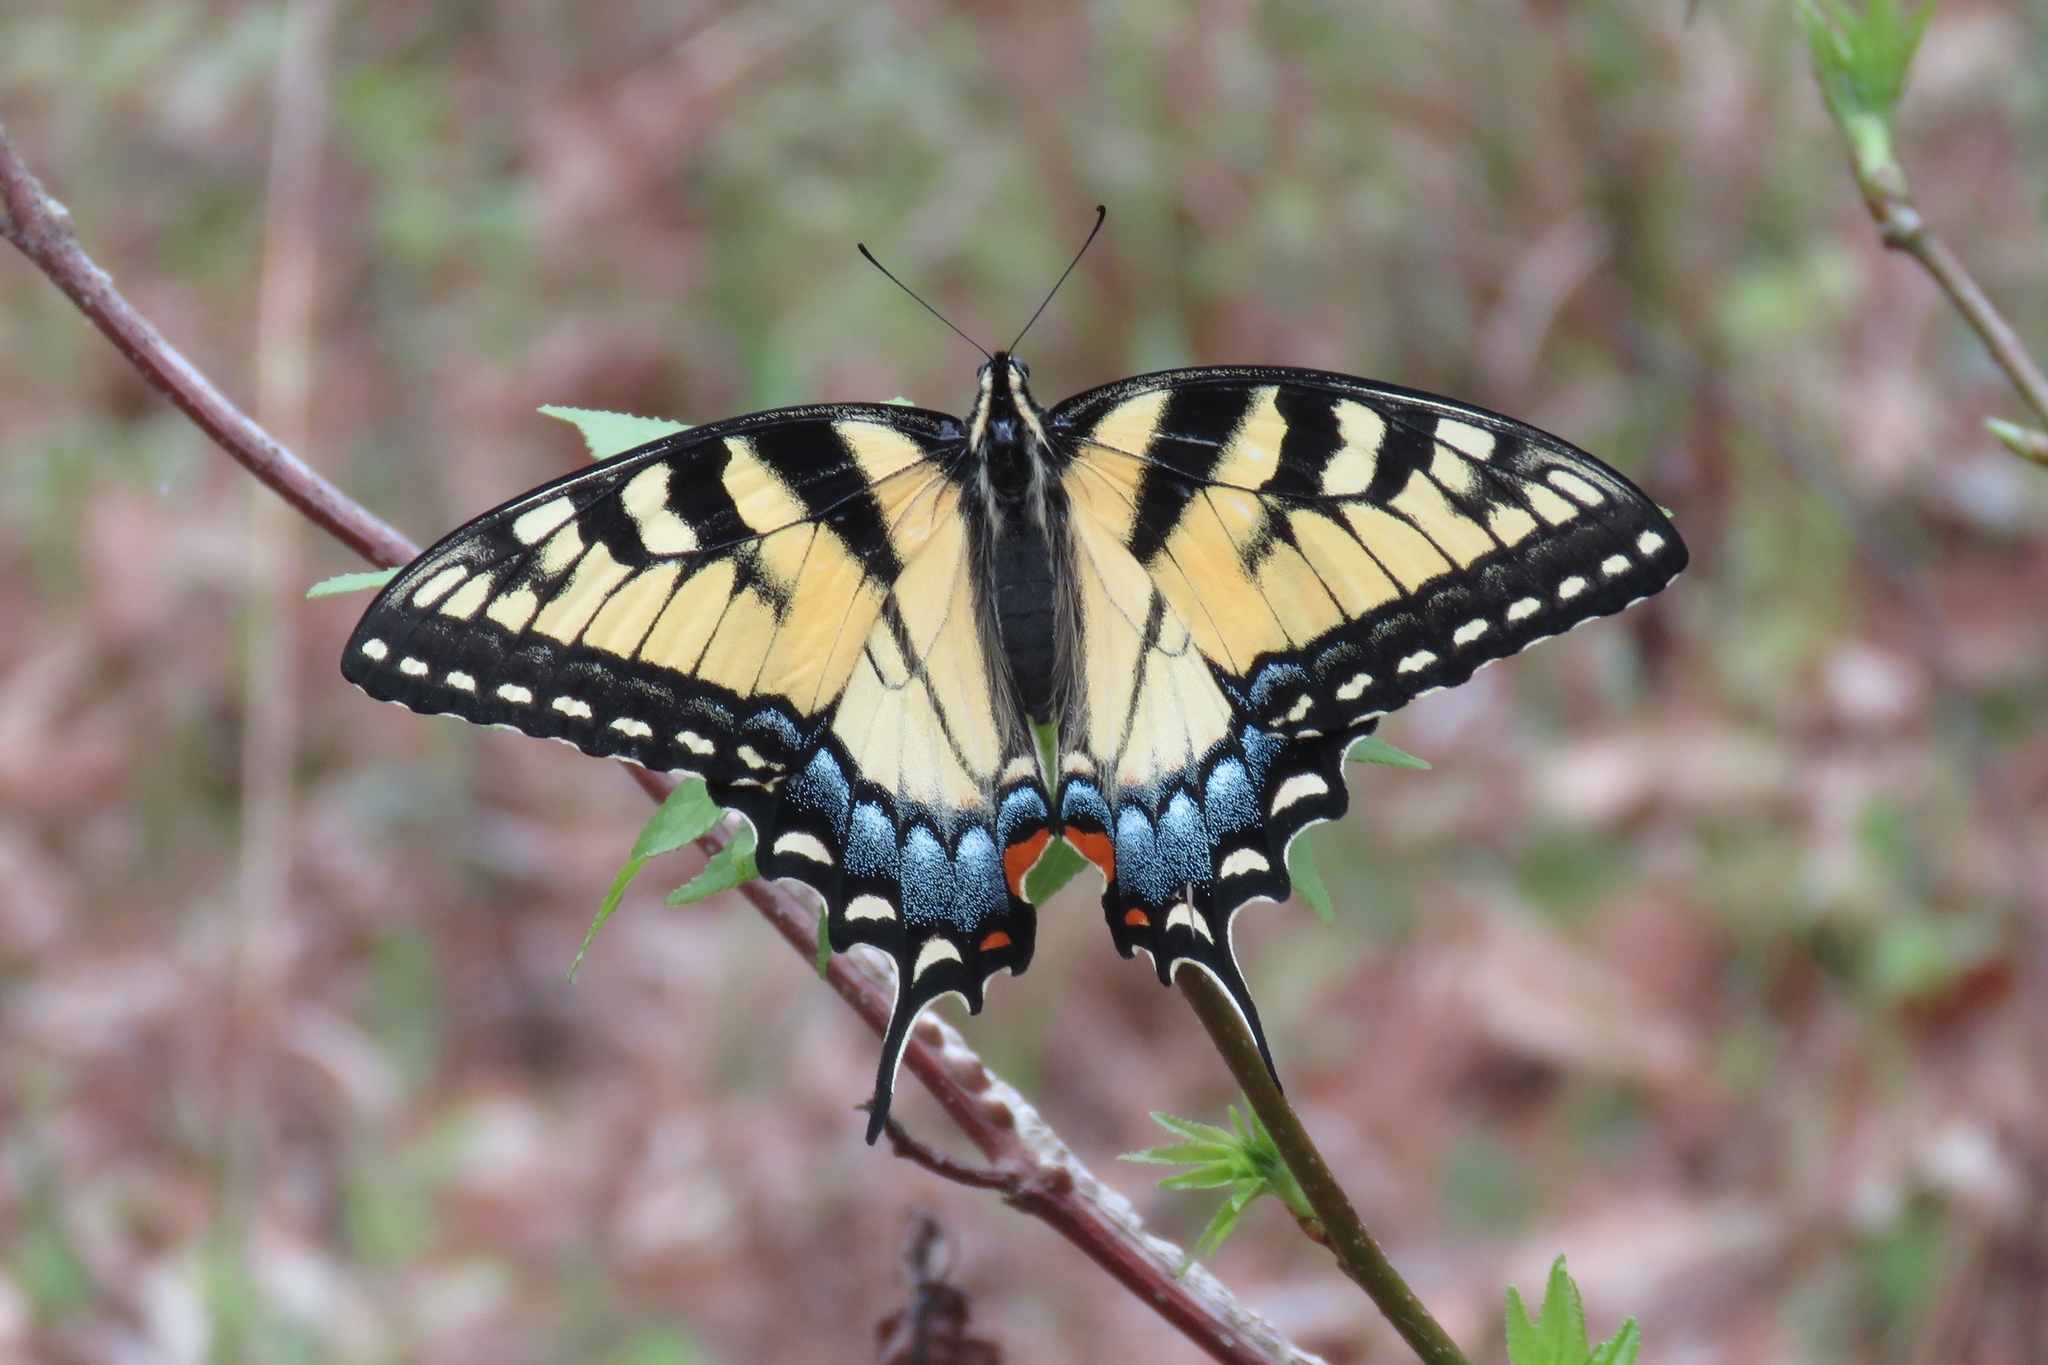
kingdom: Animalia
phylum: Arthropoda
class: Insecta
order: Lepidoptera
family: Papilionidae
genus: Papilio
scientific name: Papilio glaucus
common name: Tiger swallowtail
